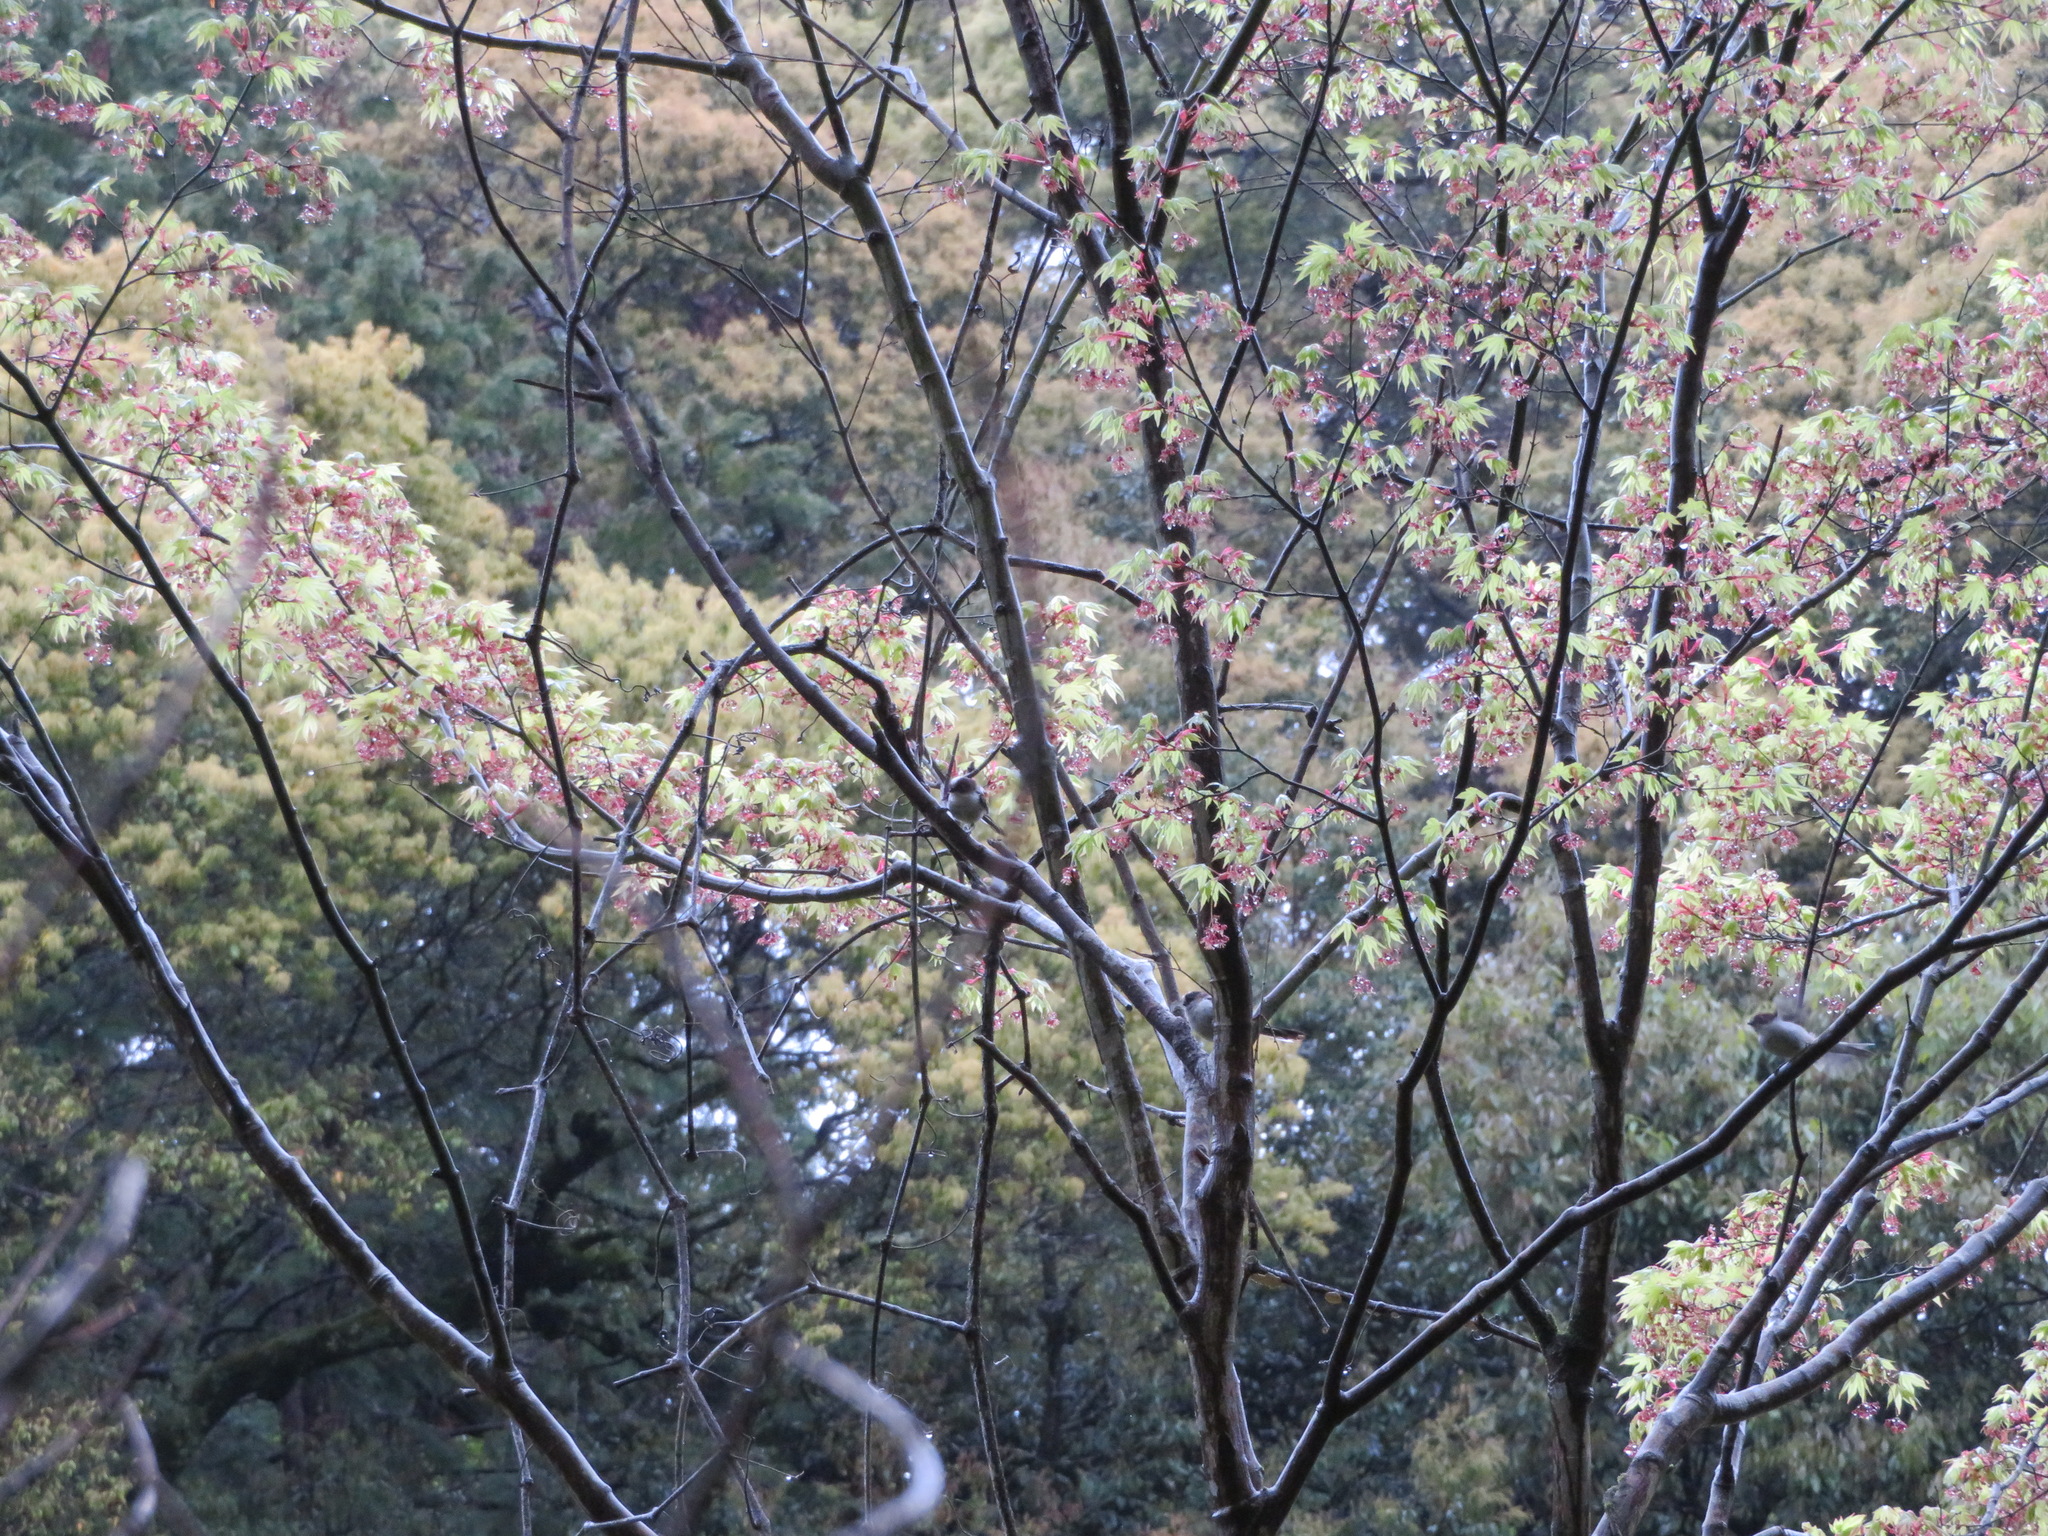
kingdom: Animalia
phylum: Chordata
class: Aves
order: Passeriformes
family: Aegithalidae
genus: Aegithalos
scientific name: Aegithalos caudatus
